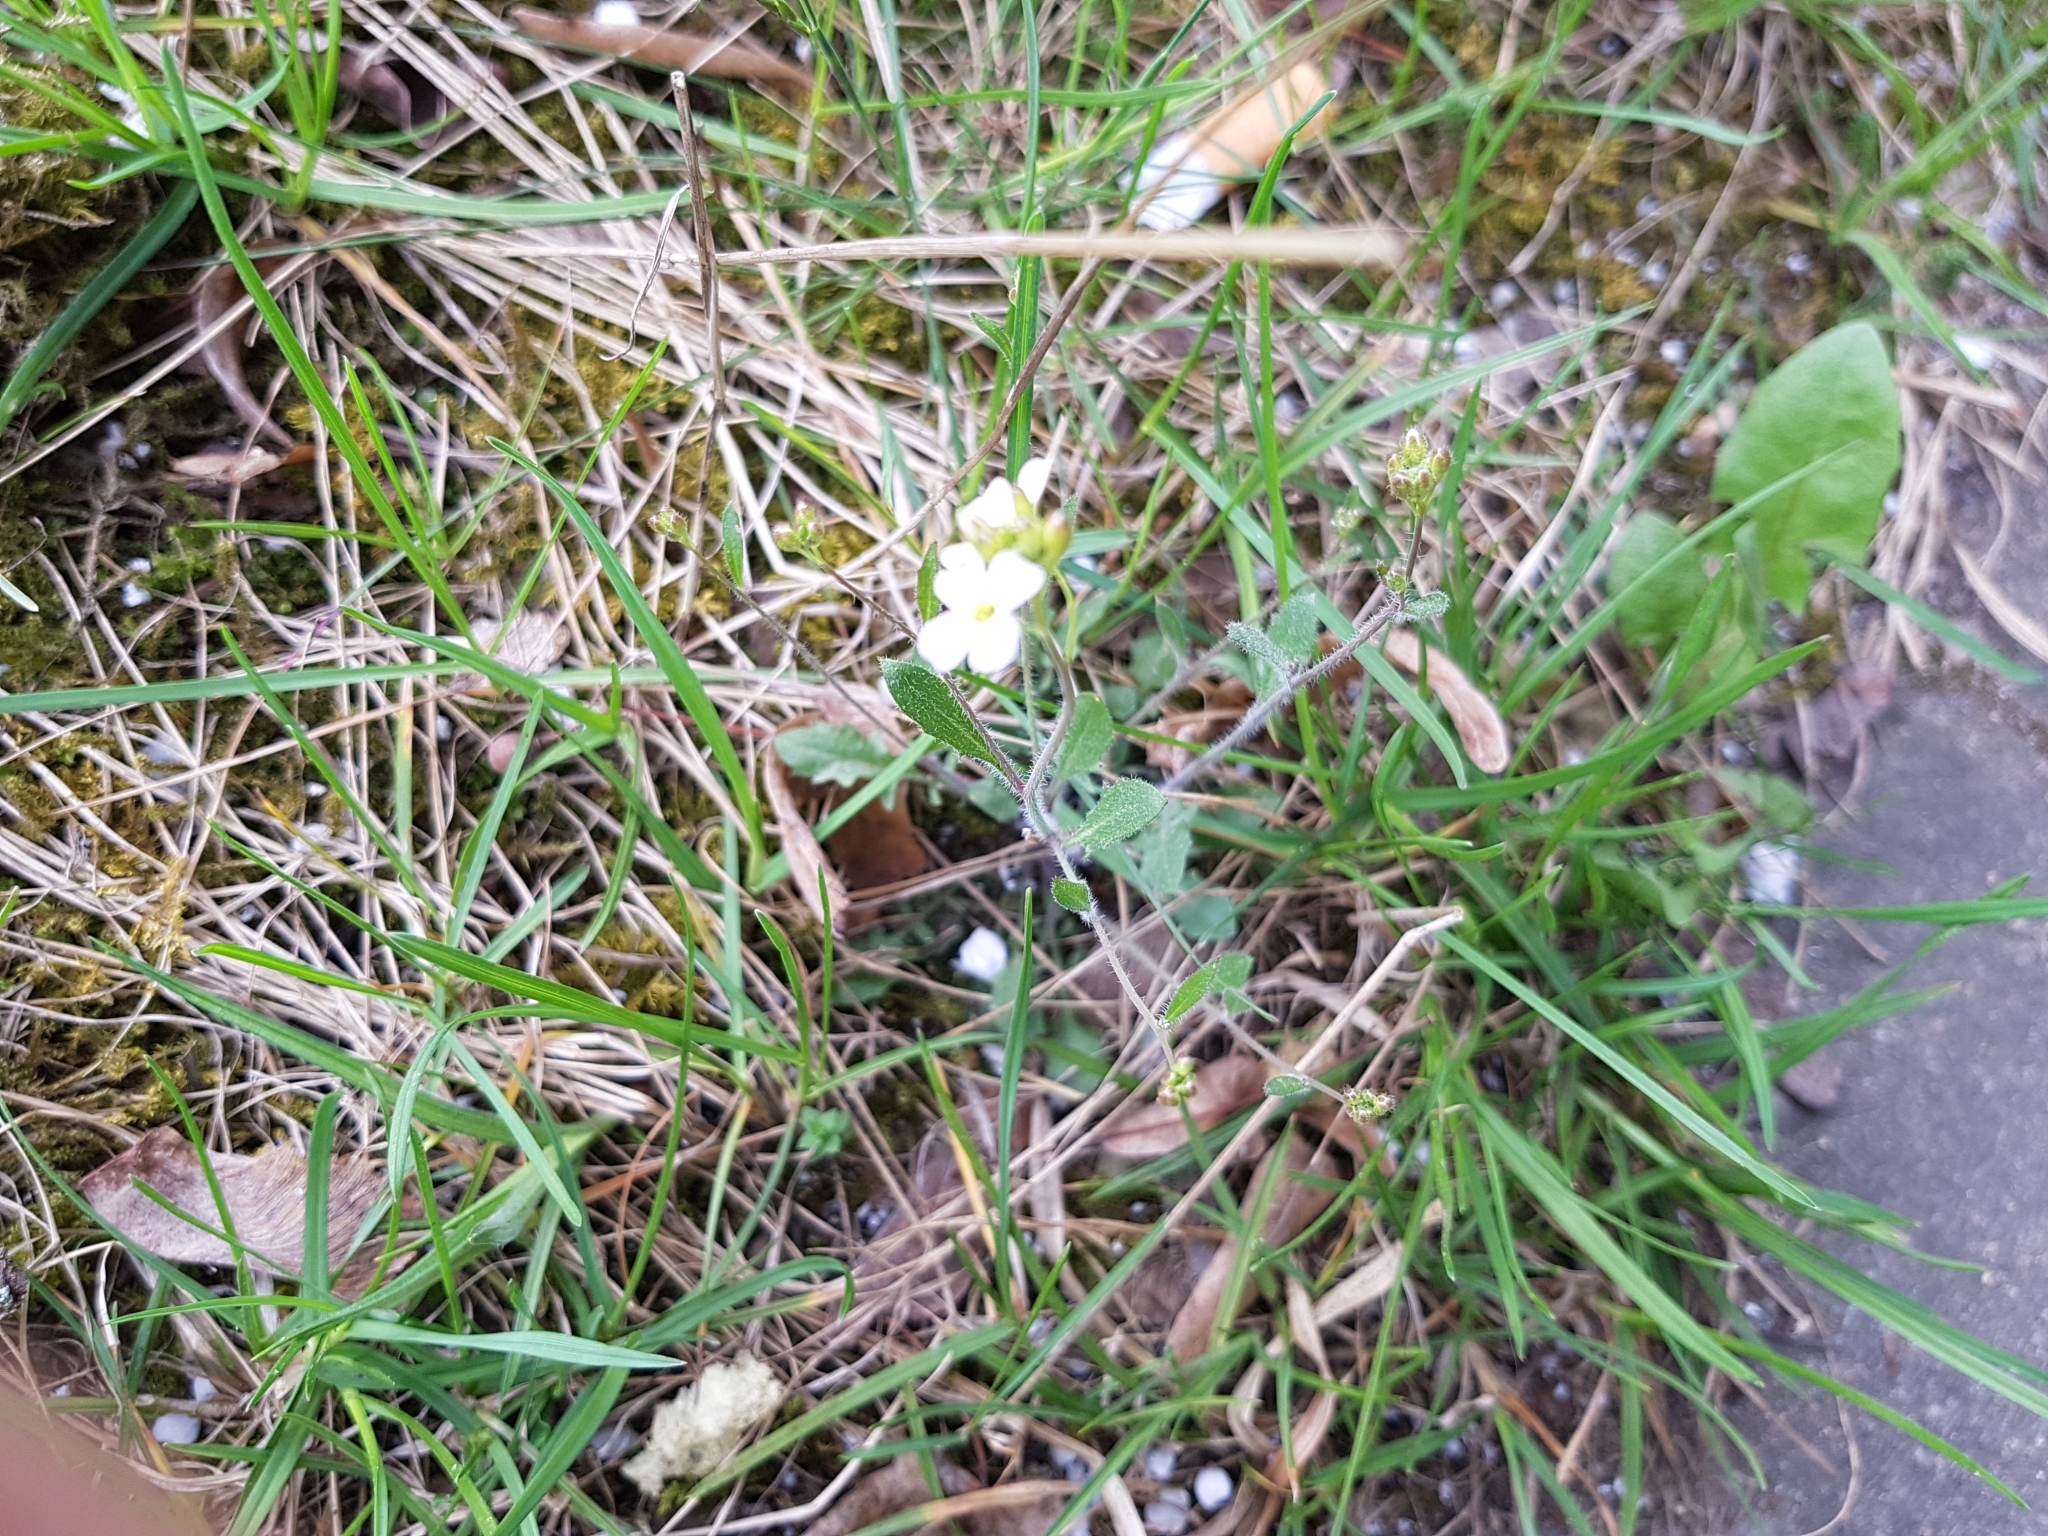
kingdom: Plantae
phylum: Tracheophyta
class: Magnoliopsida
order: Brassicales
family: Brassicaceae
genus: Arabidopsis
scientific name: Arabidopsis arenosa
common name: Sand rock-cress
